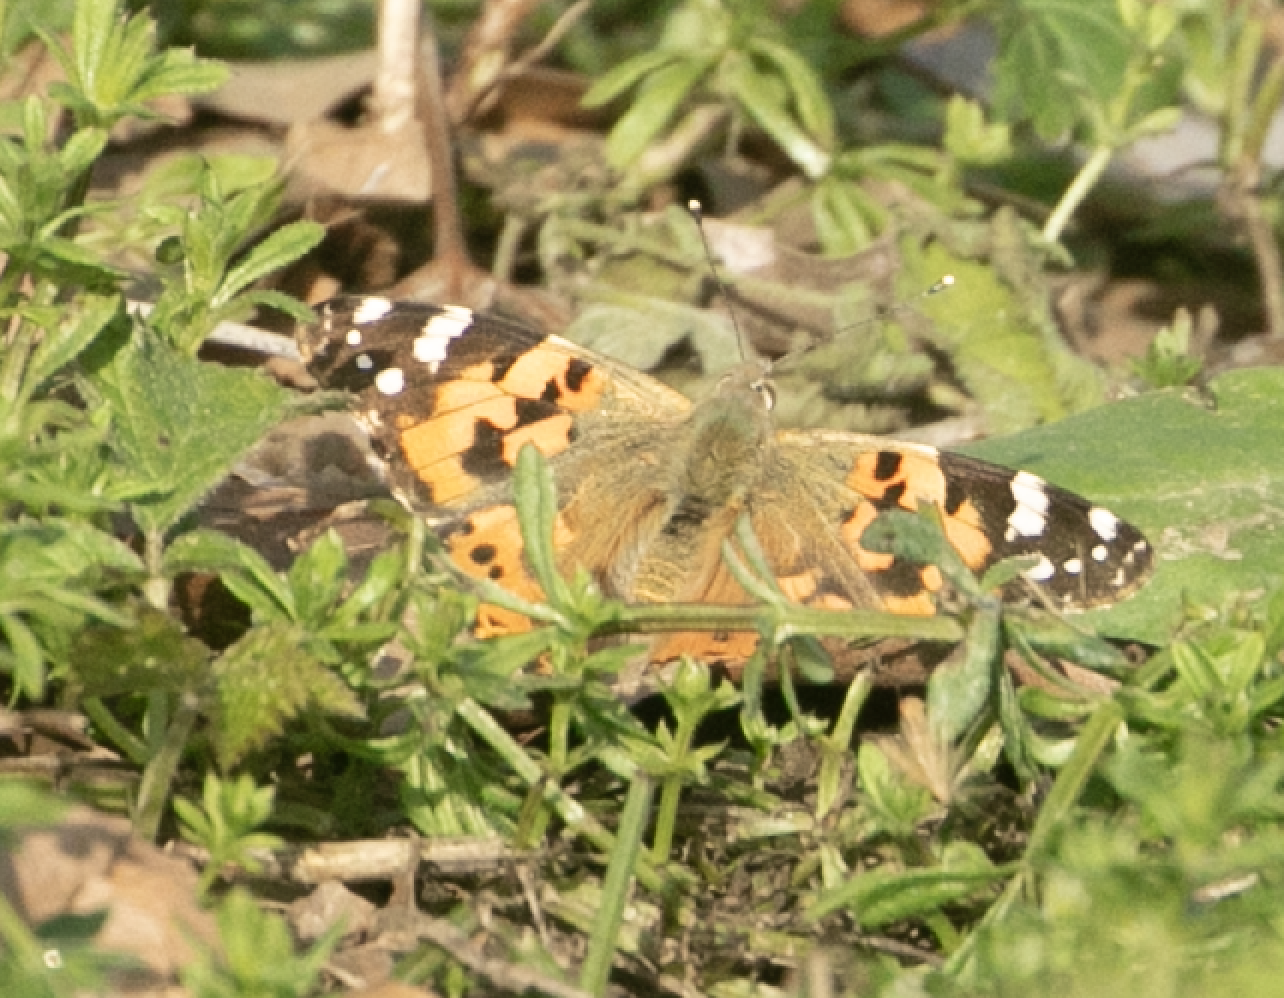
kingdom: Animalia
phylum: Arthropoda
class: Insecta
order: Lepidoptera
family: Nymphalidae
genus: Vanessa
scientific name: Vanessa cardui
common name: Painted lady
